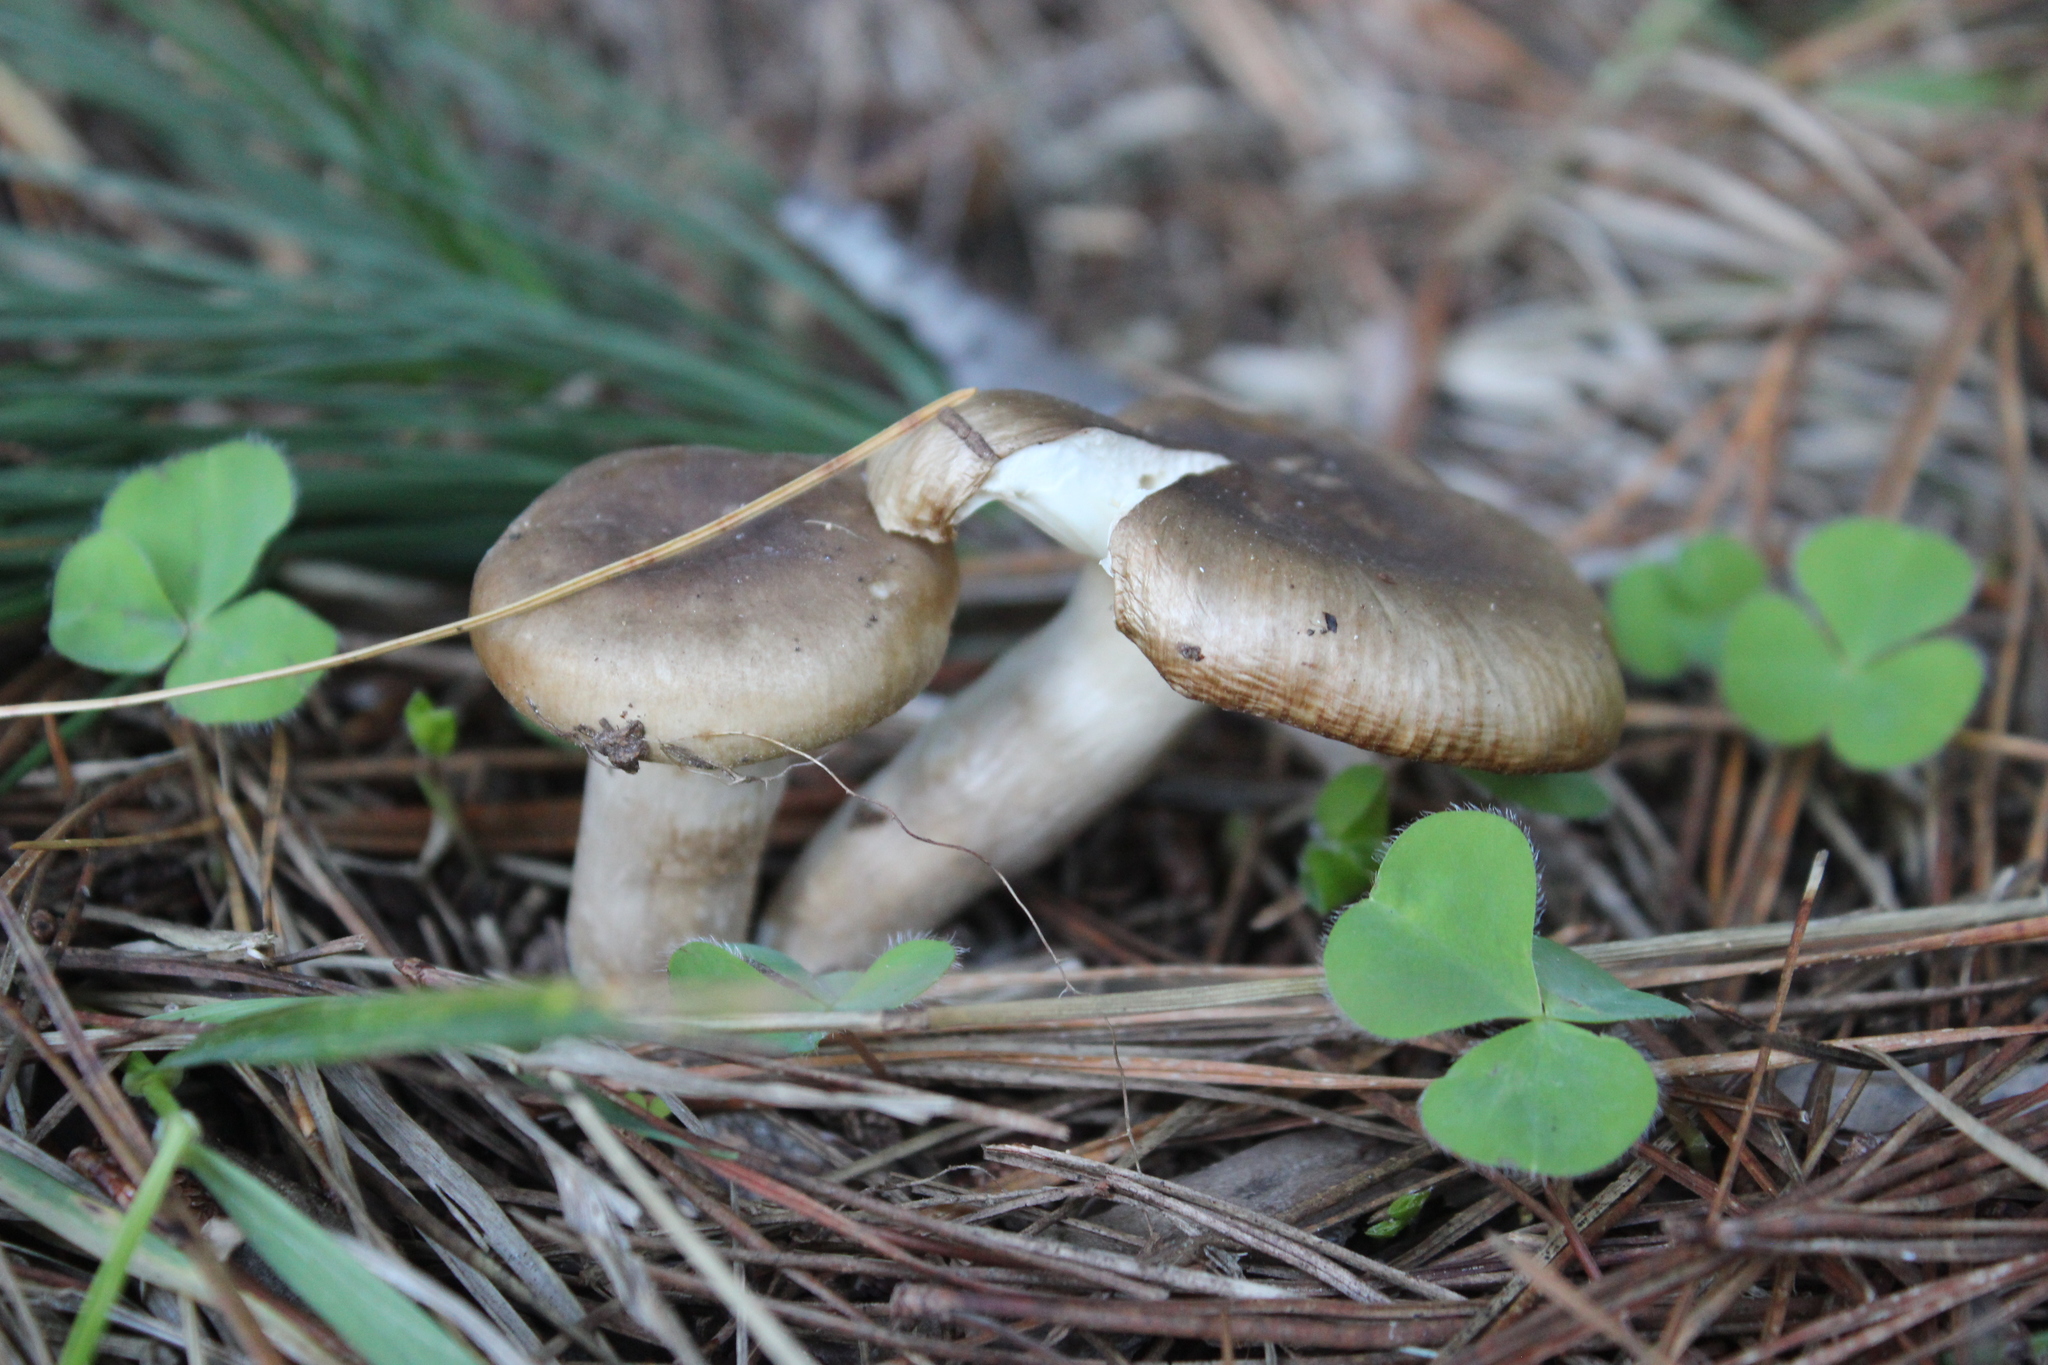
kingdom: Fungi
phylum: Basidiomycota
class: Agaricomycetes
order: Russulales
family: Russulaceae
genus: Russula
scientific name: Russula amoenolens
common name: Camembert brittlegill
